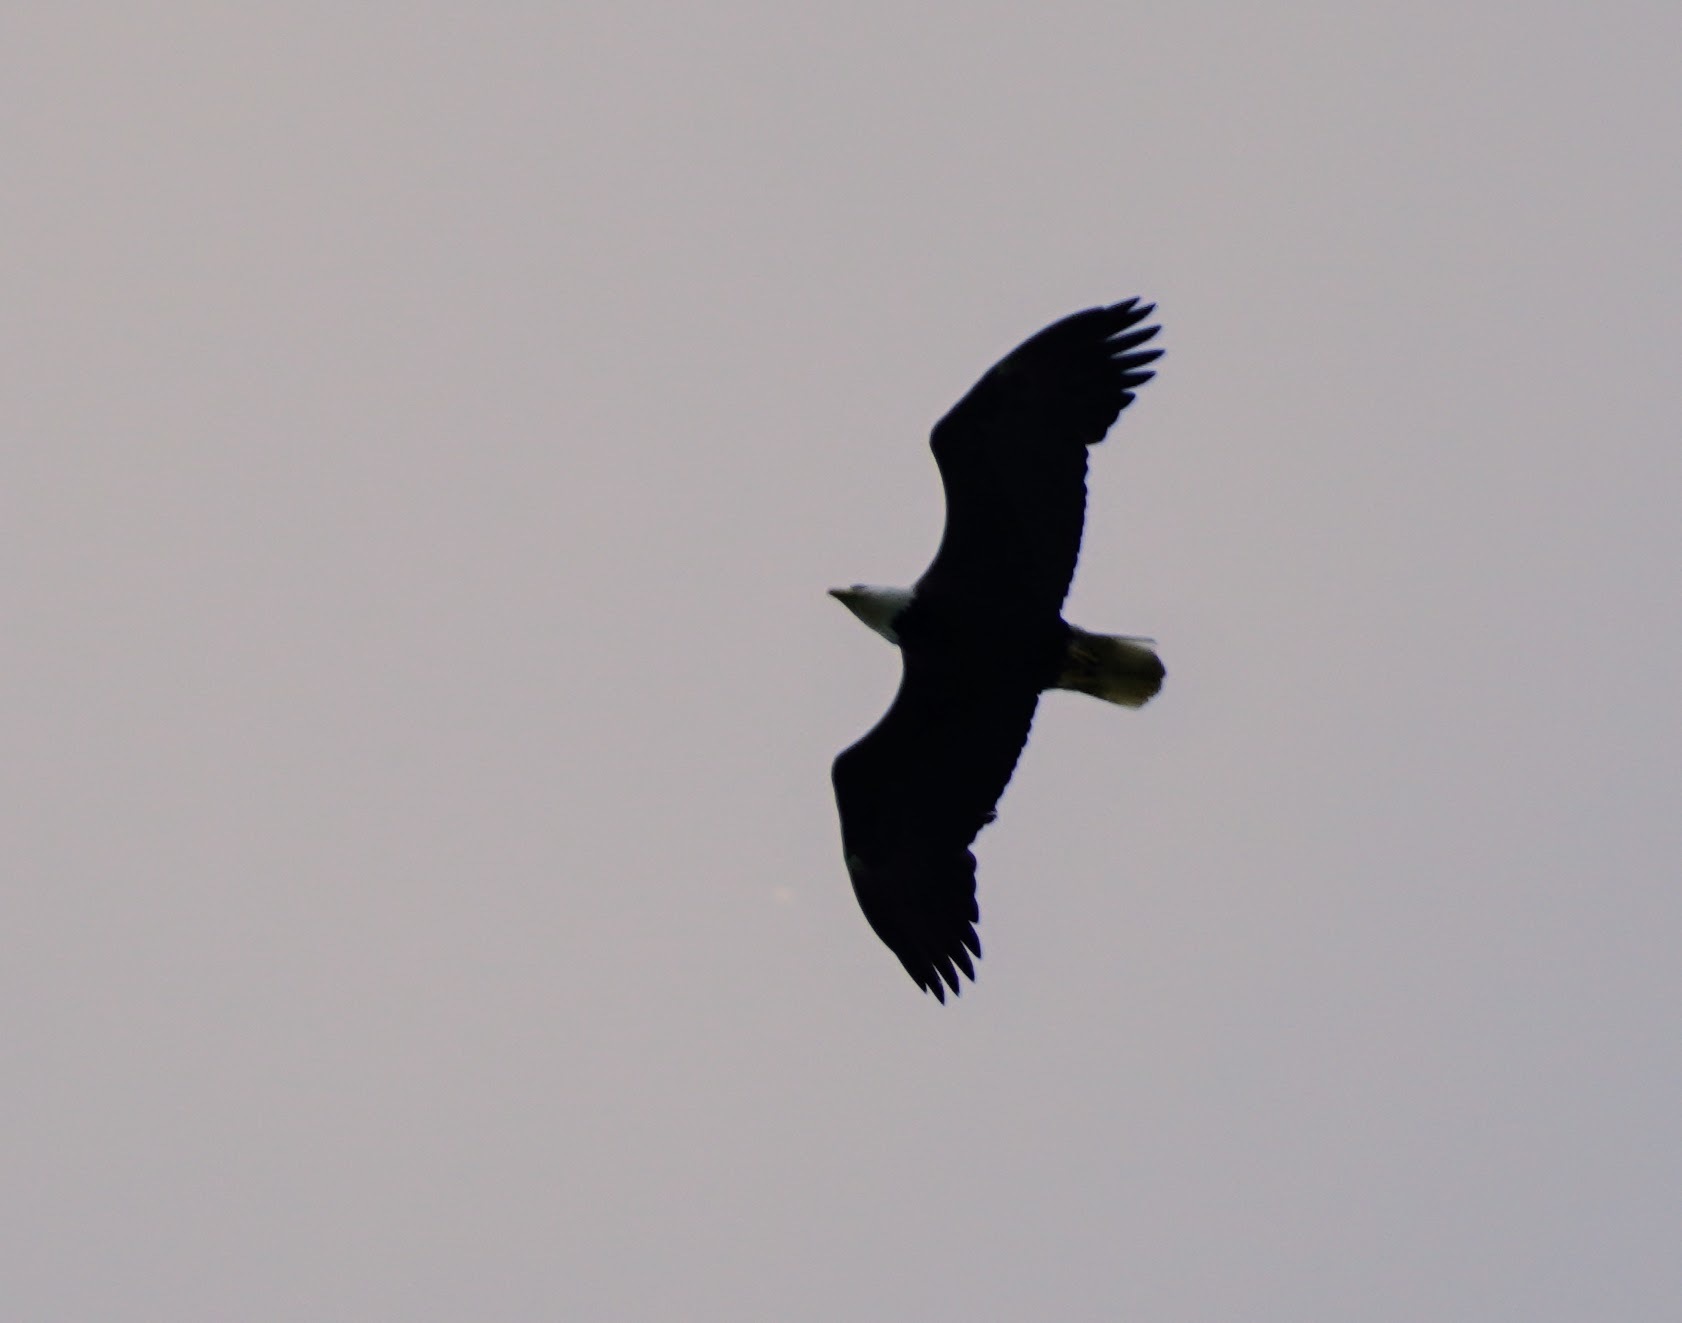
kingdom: Animalia
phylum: Chordata
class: Aves
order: Accipitriformes
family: Accipitridae
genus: Haliaeetus
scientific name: Haliaeetus leucocephalus
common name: Bald eagle
